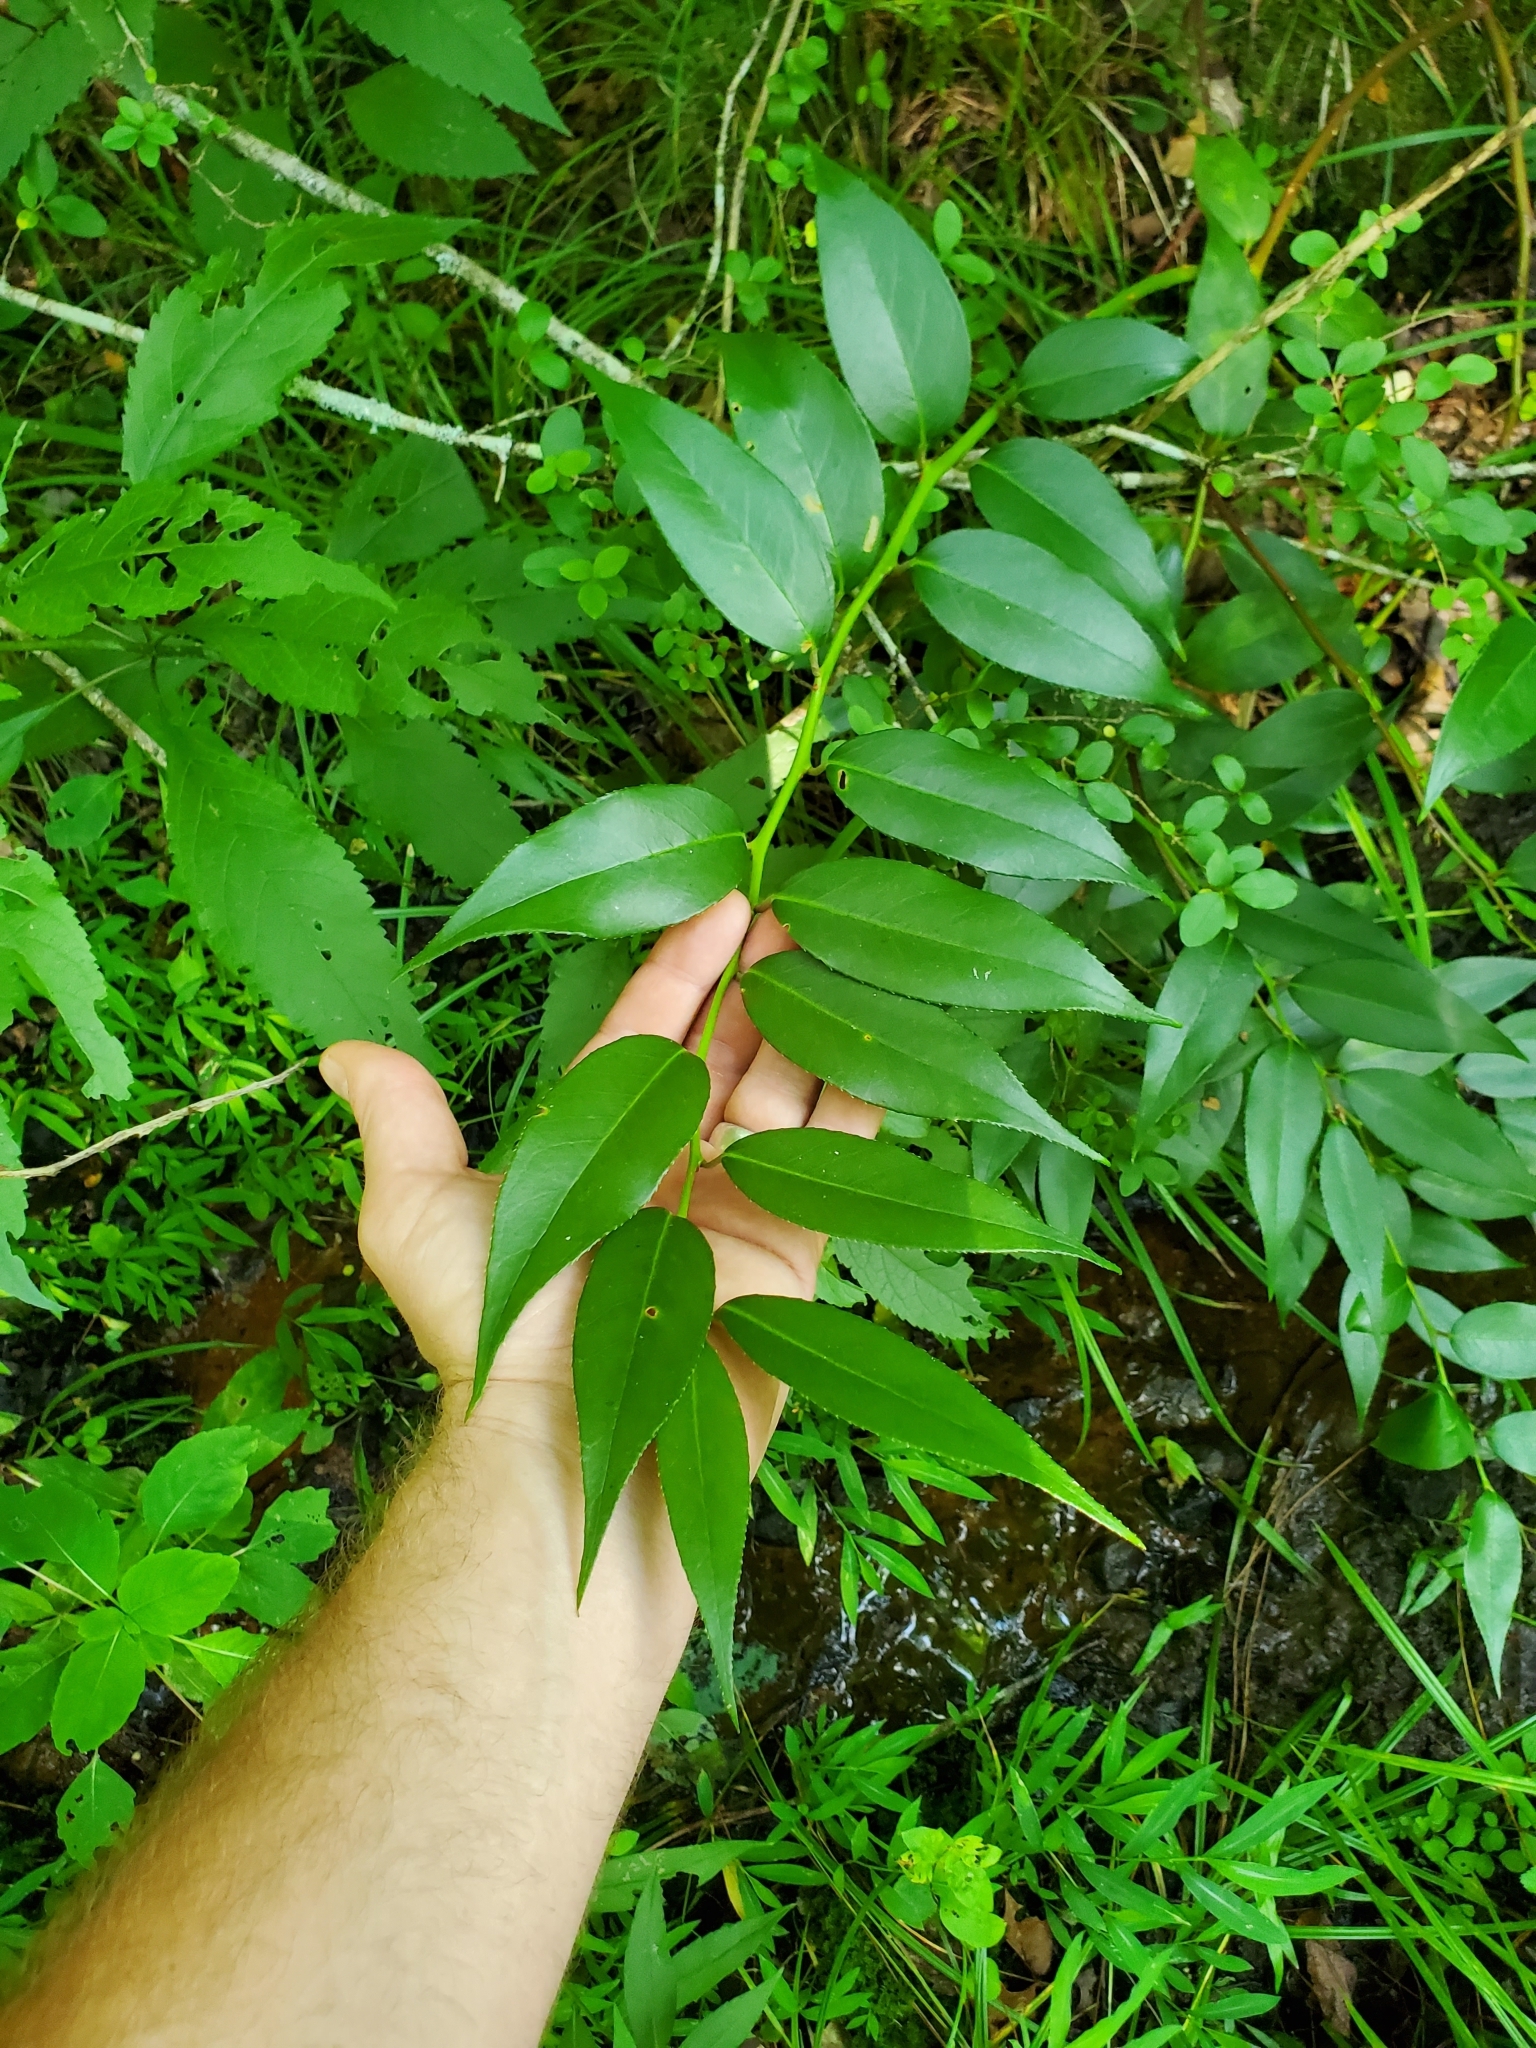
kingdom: Plantae
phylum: Tracheophyta
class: Magnoliopsida
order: Ericales
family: Ericaceae
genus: Leucothoe
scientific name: Leucothoe fontanesiana
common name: Fetterbush
